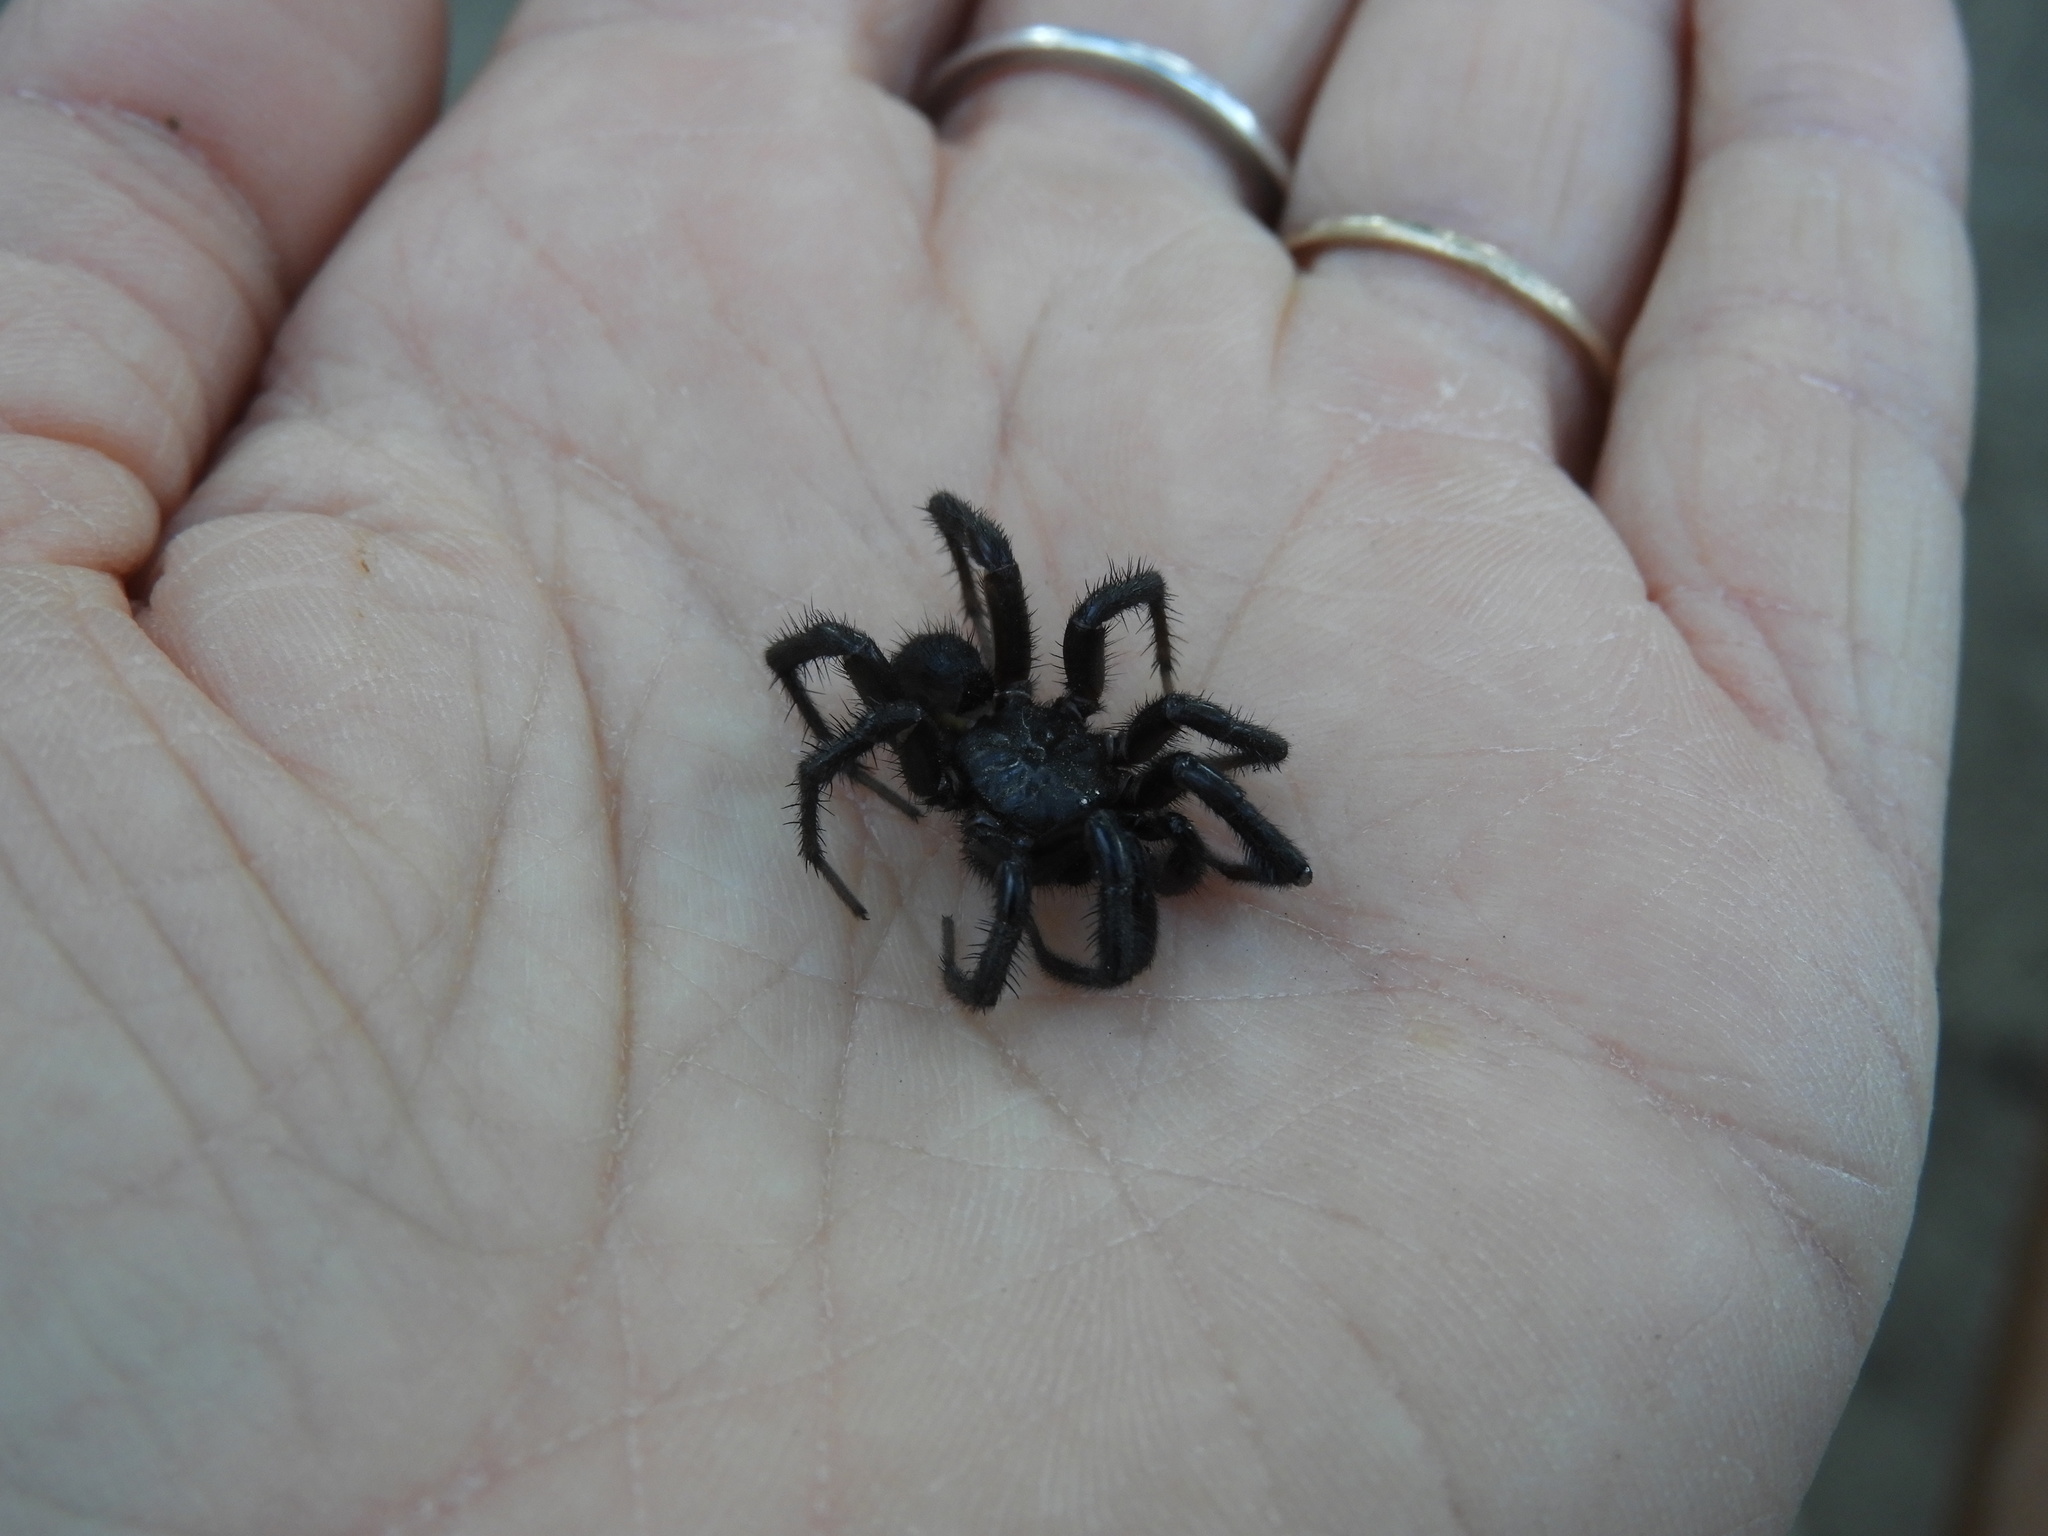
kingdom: Animalia
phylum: Arthropoda
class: Arachnida
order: Araneae
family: Antrodiaetidae
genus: Antrodiaetus
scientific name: Antrodiaetus pacificus
